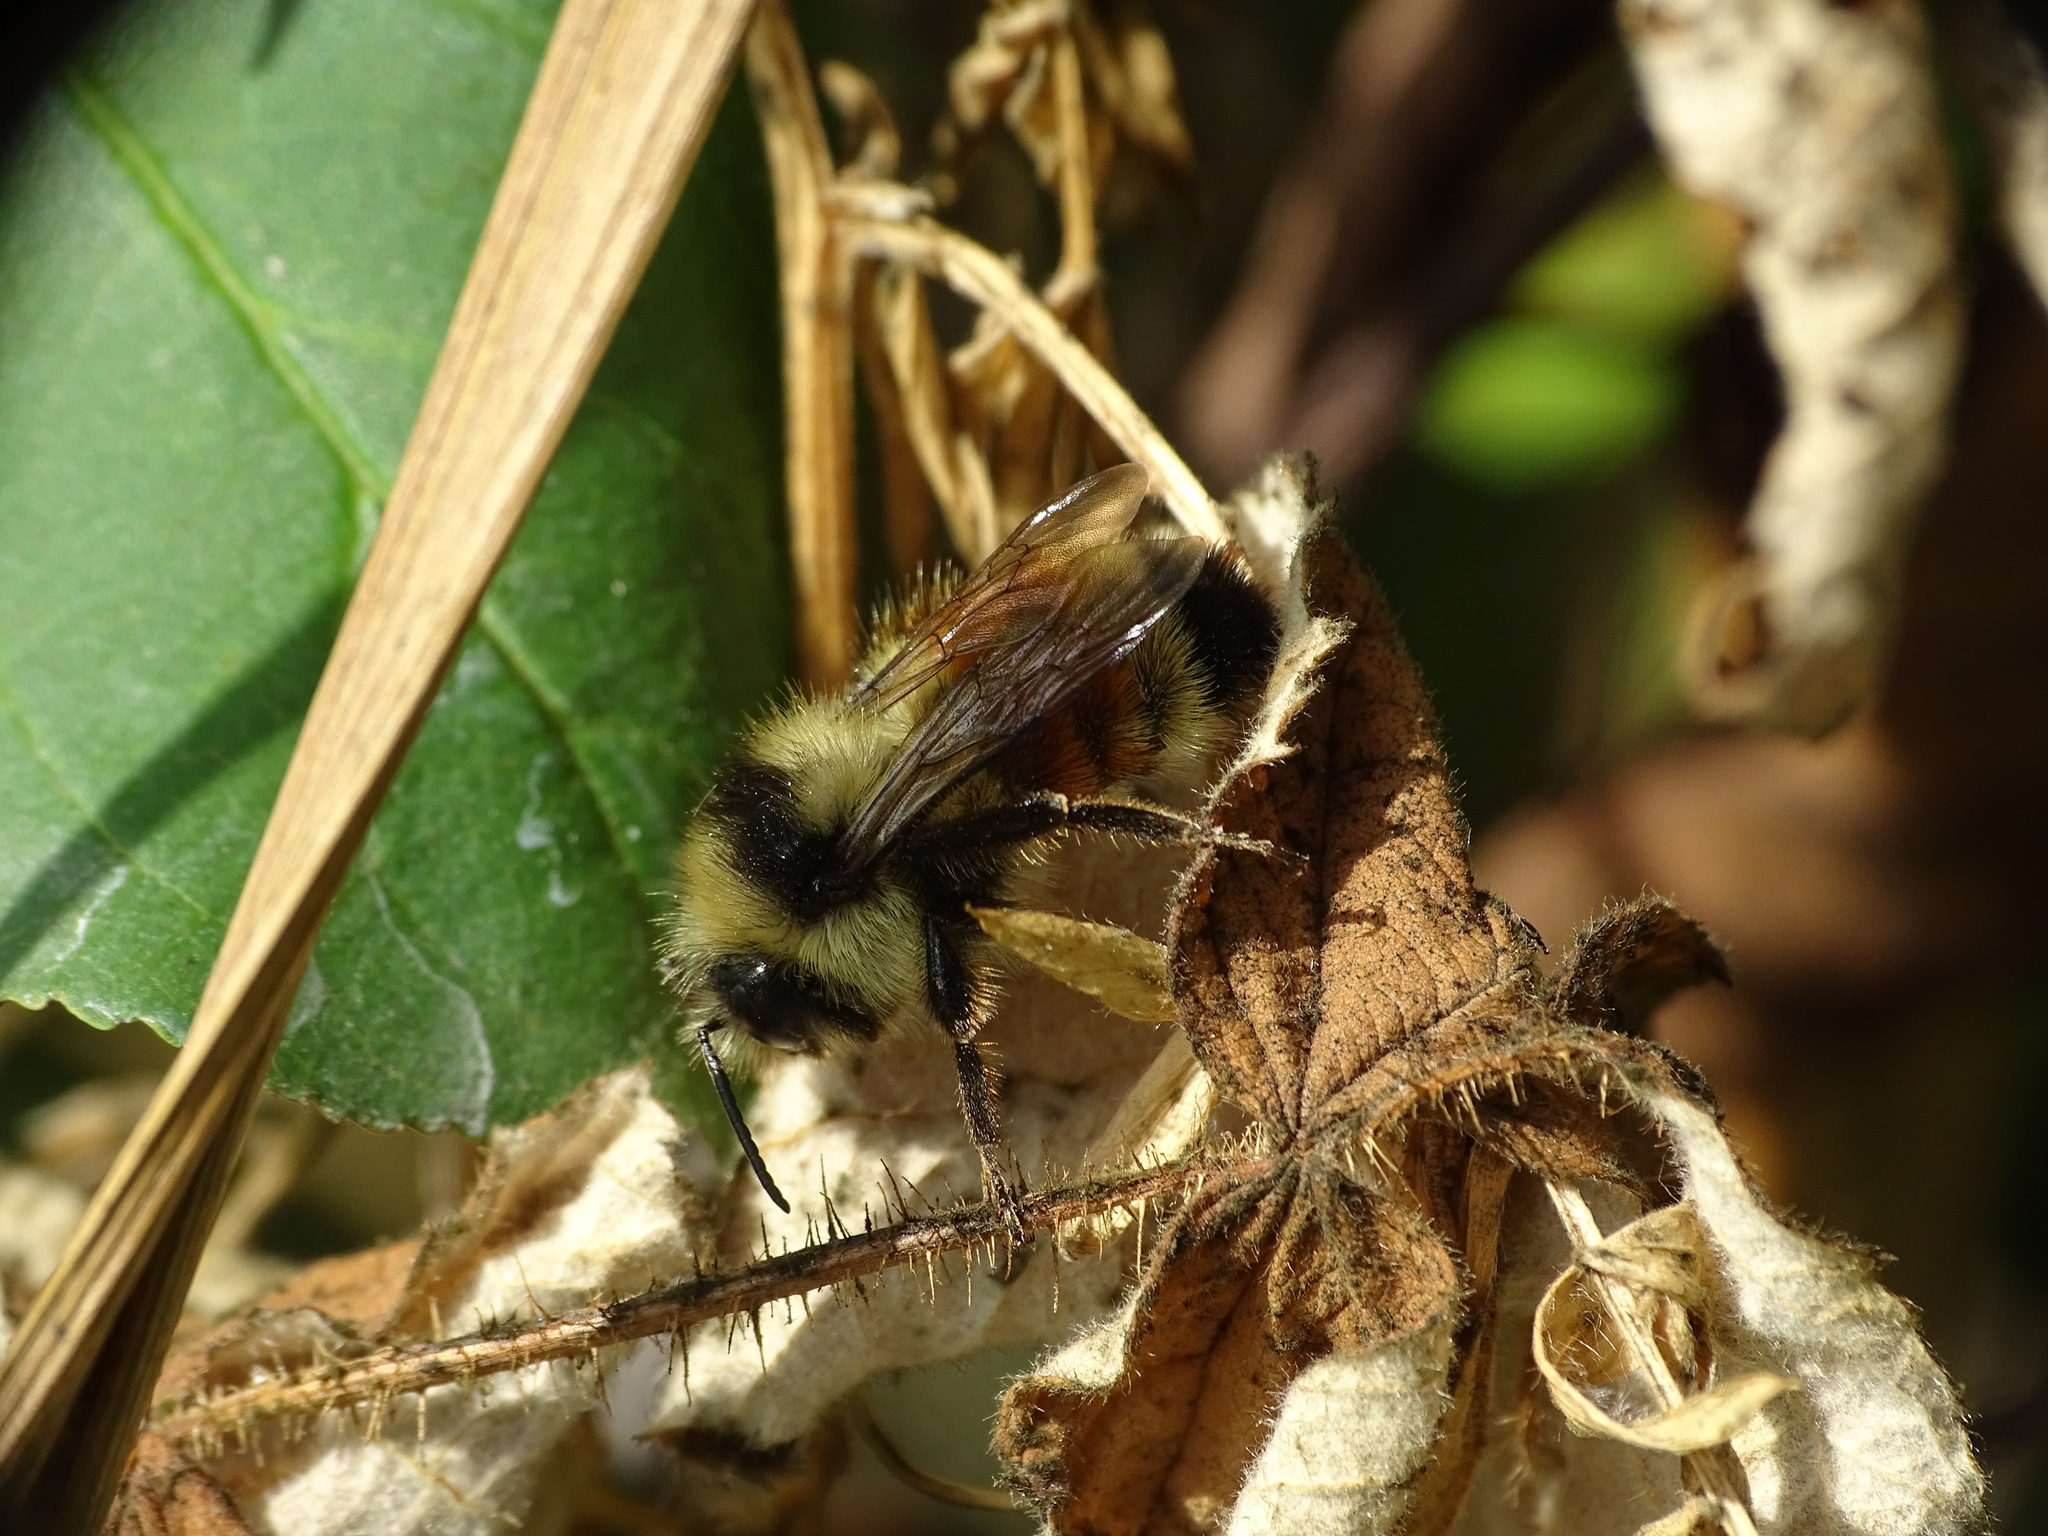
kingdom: Animalia
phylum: Arthropoda
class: Insecta
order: Hymenoptera
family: Apidae
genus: Bombus
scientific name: Bombus ternarius
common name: Tri-colored bumble bee
